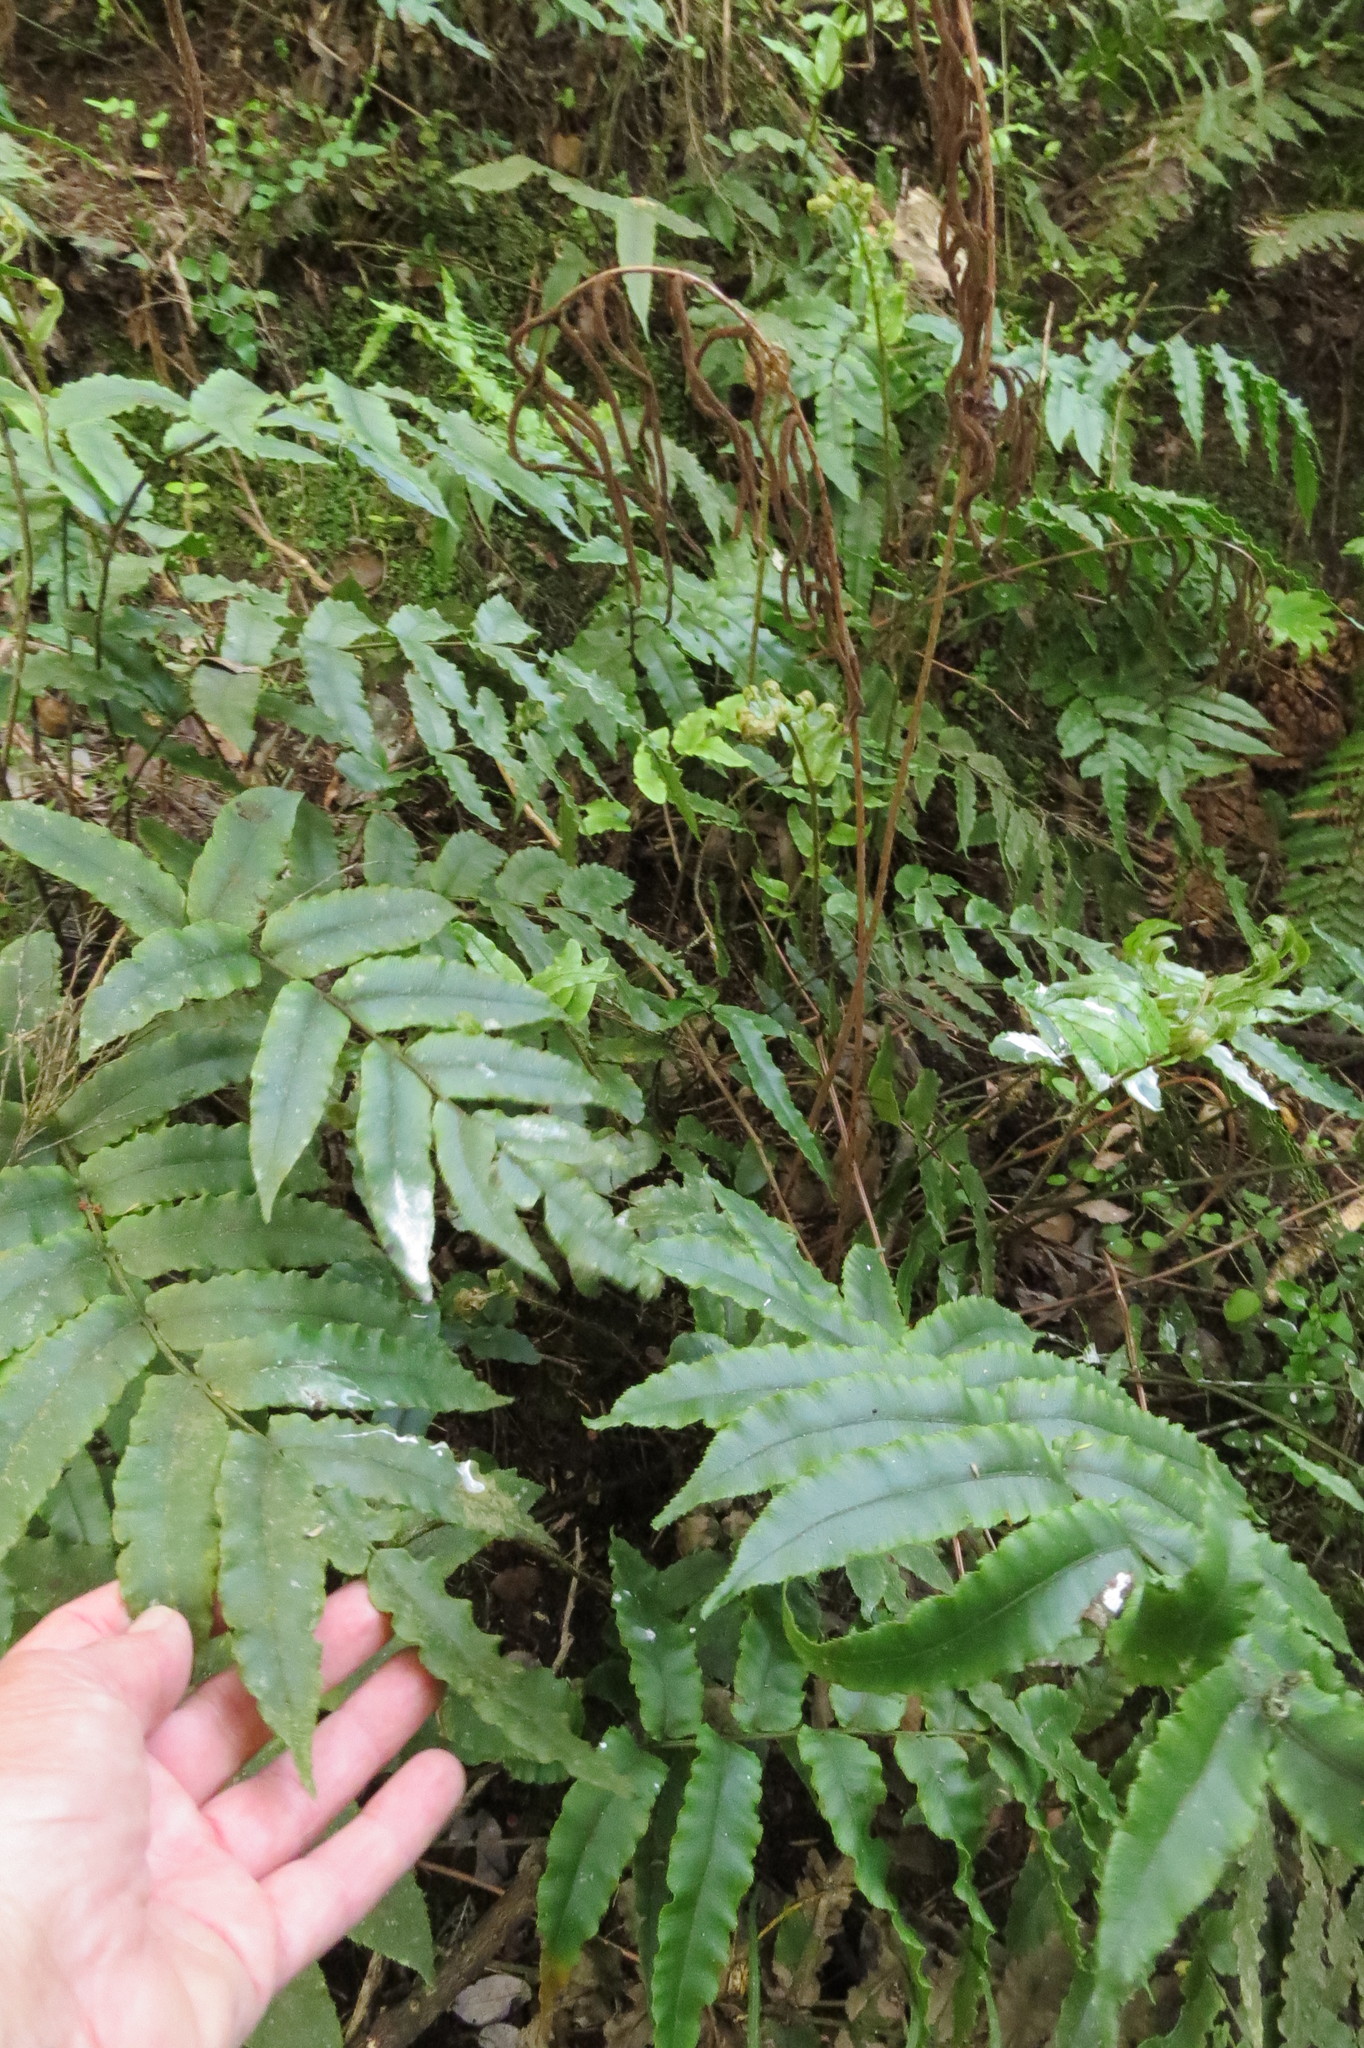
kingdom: Plantae
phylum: Tracheophyta
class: Polypodiopsida
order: Polypodiales
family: Blechnaceae
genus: Parablechnum
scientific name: Parablechnum procerum
